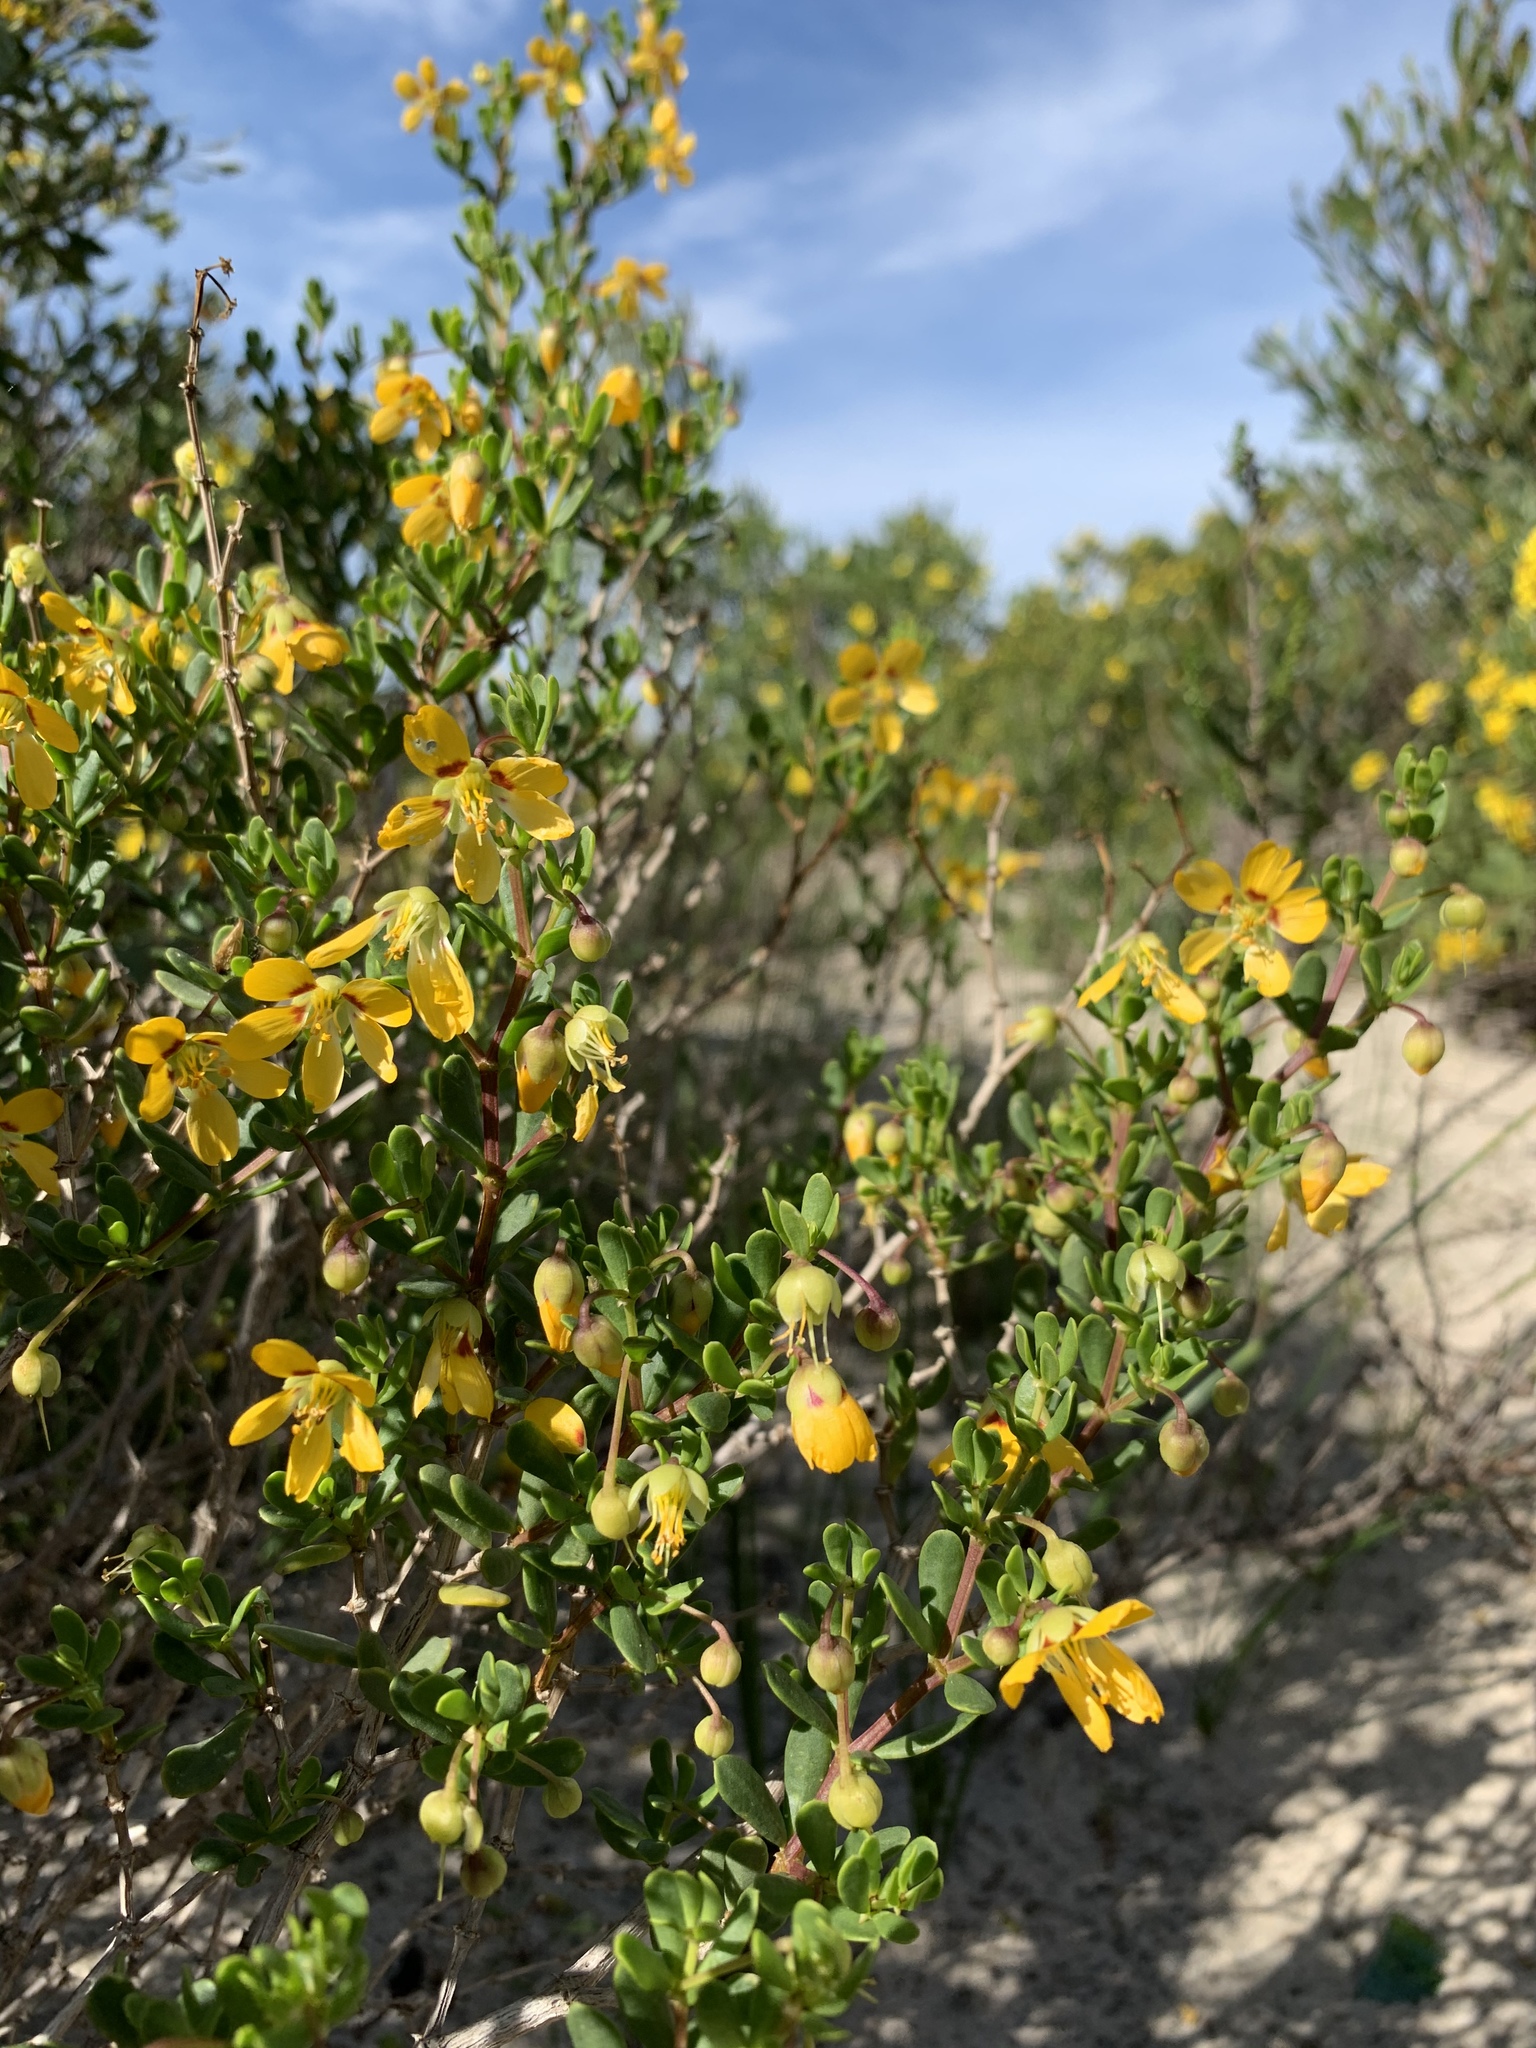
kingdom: Plantae
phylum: Tracheophyta
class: Magnoliopsida
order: Zygophyllales
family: Zygophyllaceae
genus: Roepera
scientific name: Roepera flexuosa
